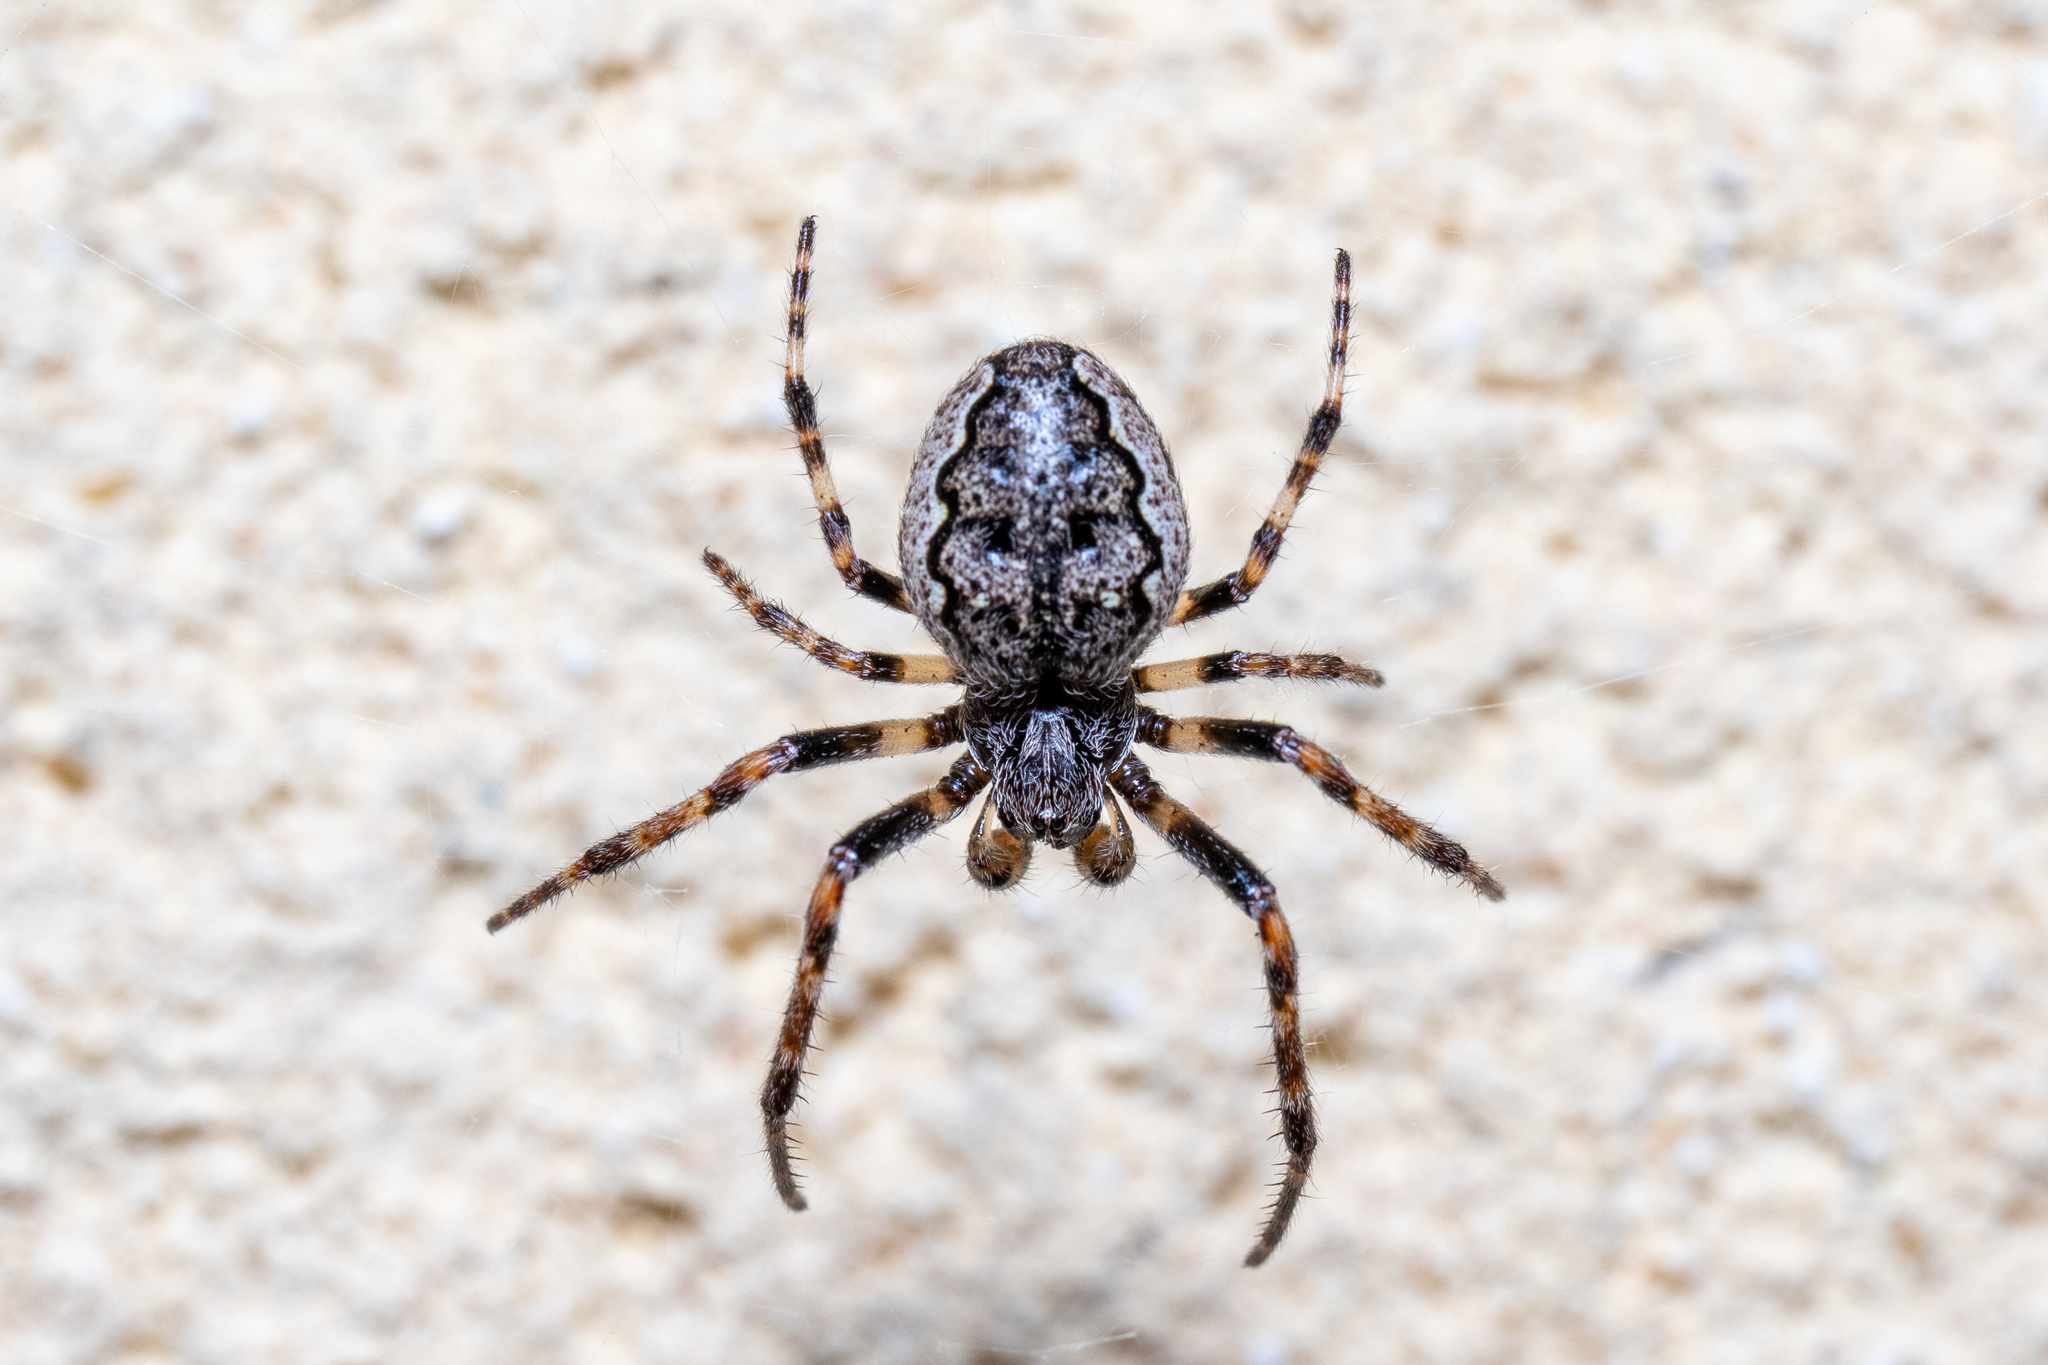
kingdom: Animalia
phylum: Arthropoda
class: Arachnida
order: Araneae
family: Araneidae
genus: Nuctenea
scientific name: Nuctenea umbratica
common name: Toad spider
